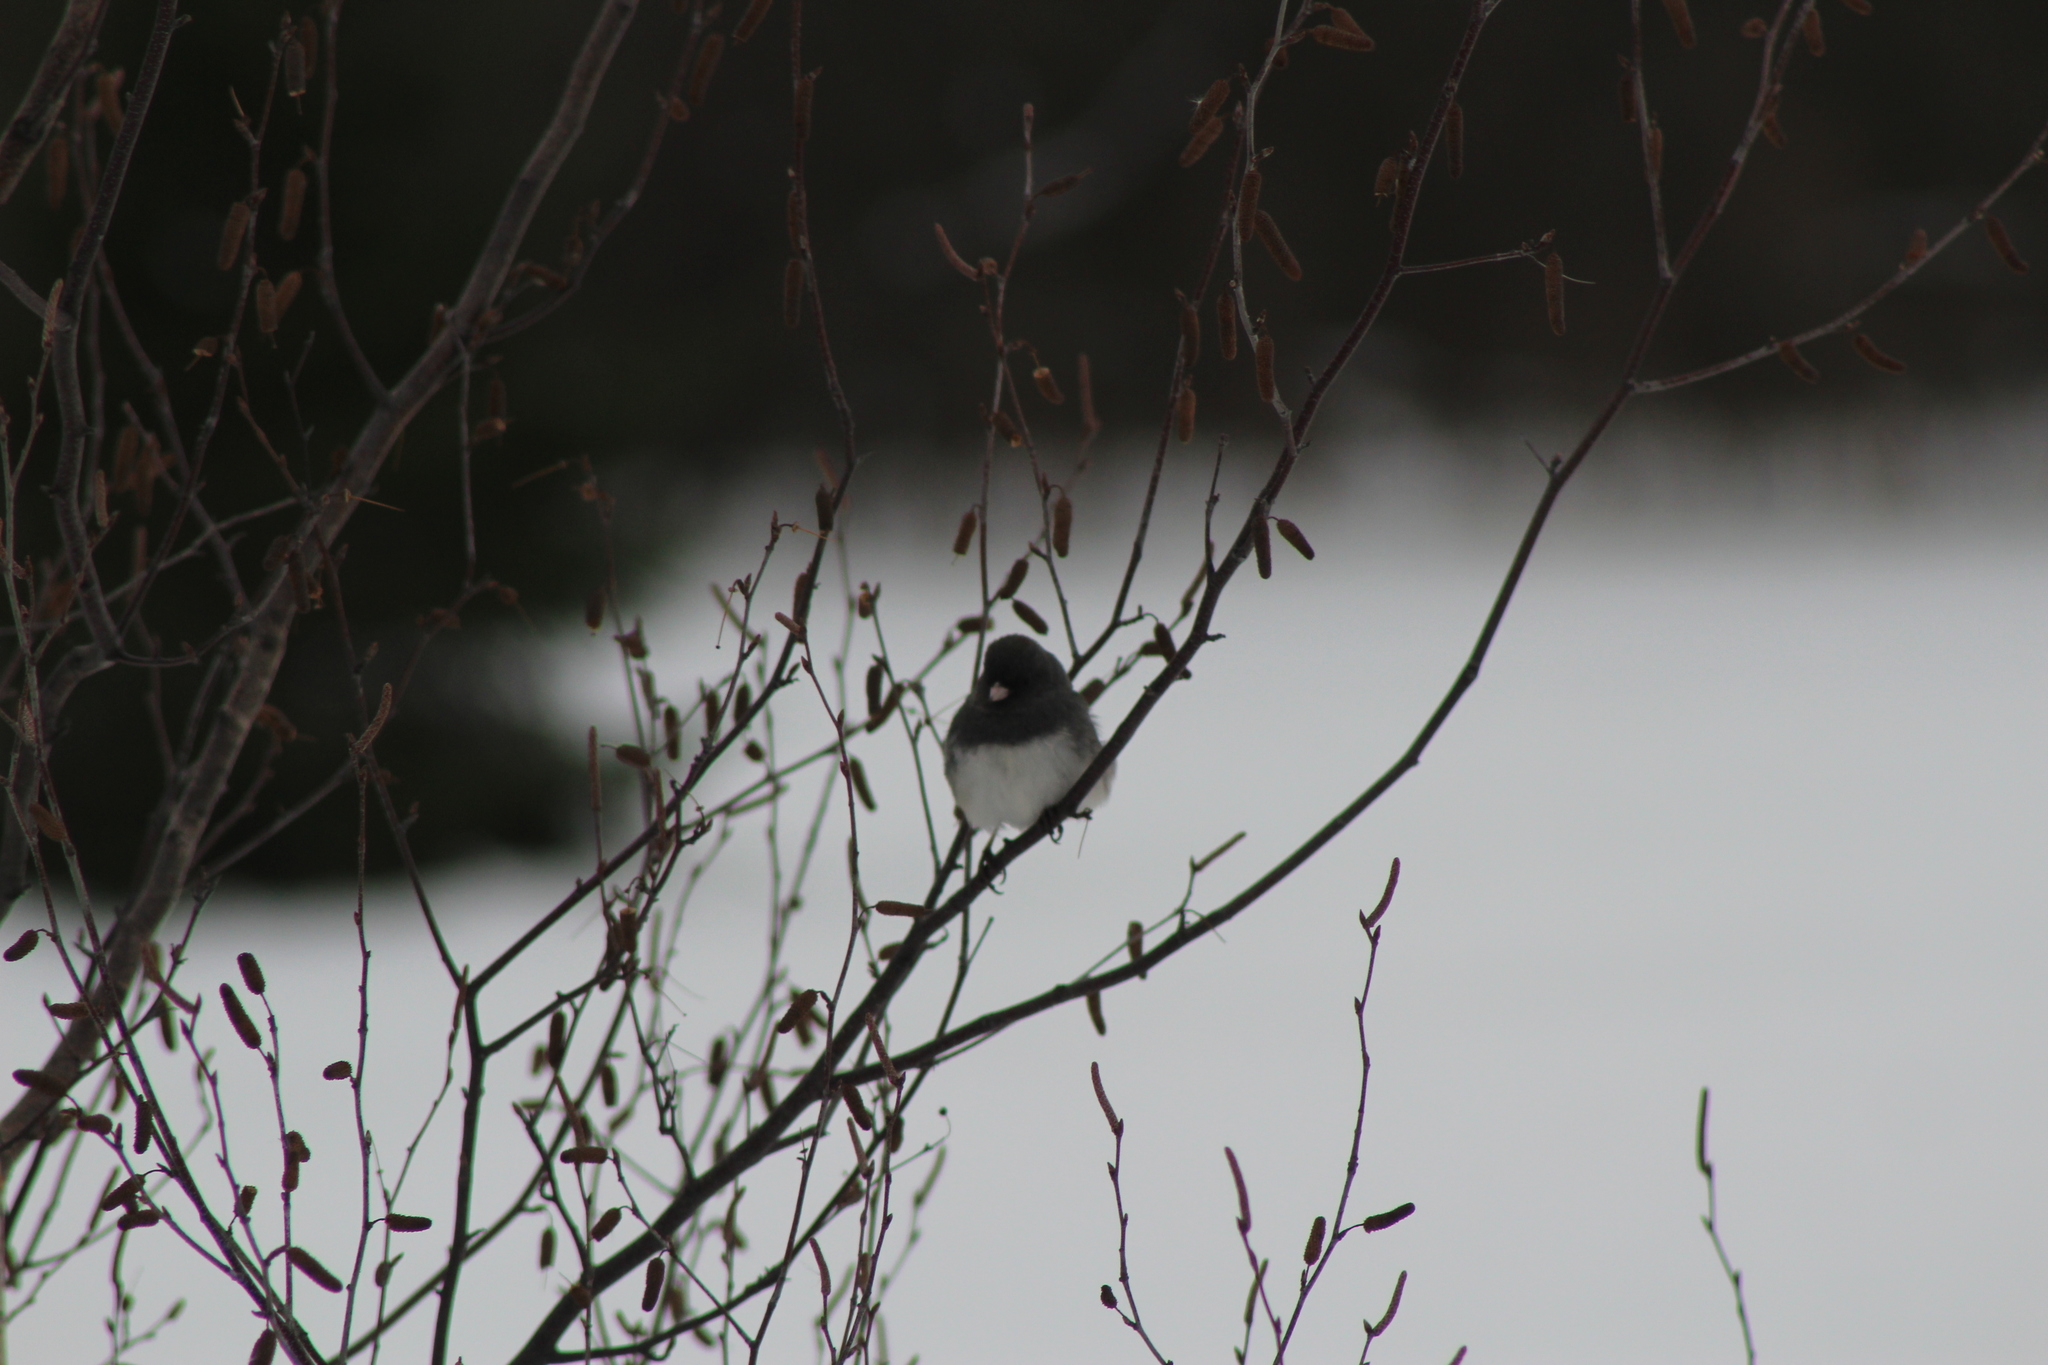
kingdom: Animalia
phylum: Chordata
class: Aves
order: Passeriformes
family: Passerellidae
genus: Junco
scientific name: Junco hyemalis
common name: Dark-eyed junco
